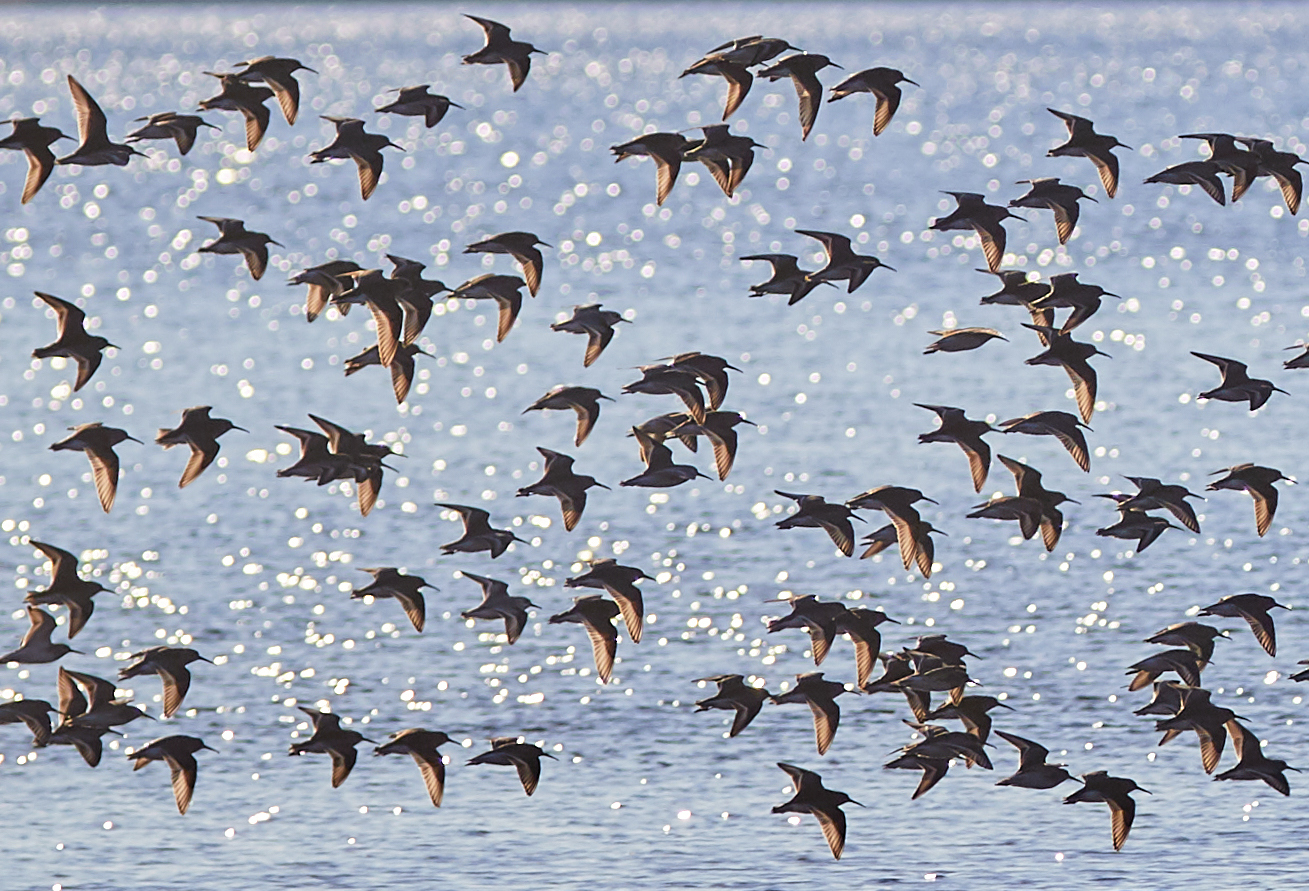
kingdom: Animalia
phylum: Chordata
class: Aves
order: Charadriiformes
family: Scolopacidae
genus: Calidris
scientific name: Calidris alpina
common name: Dunlin
